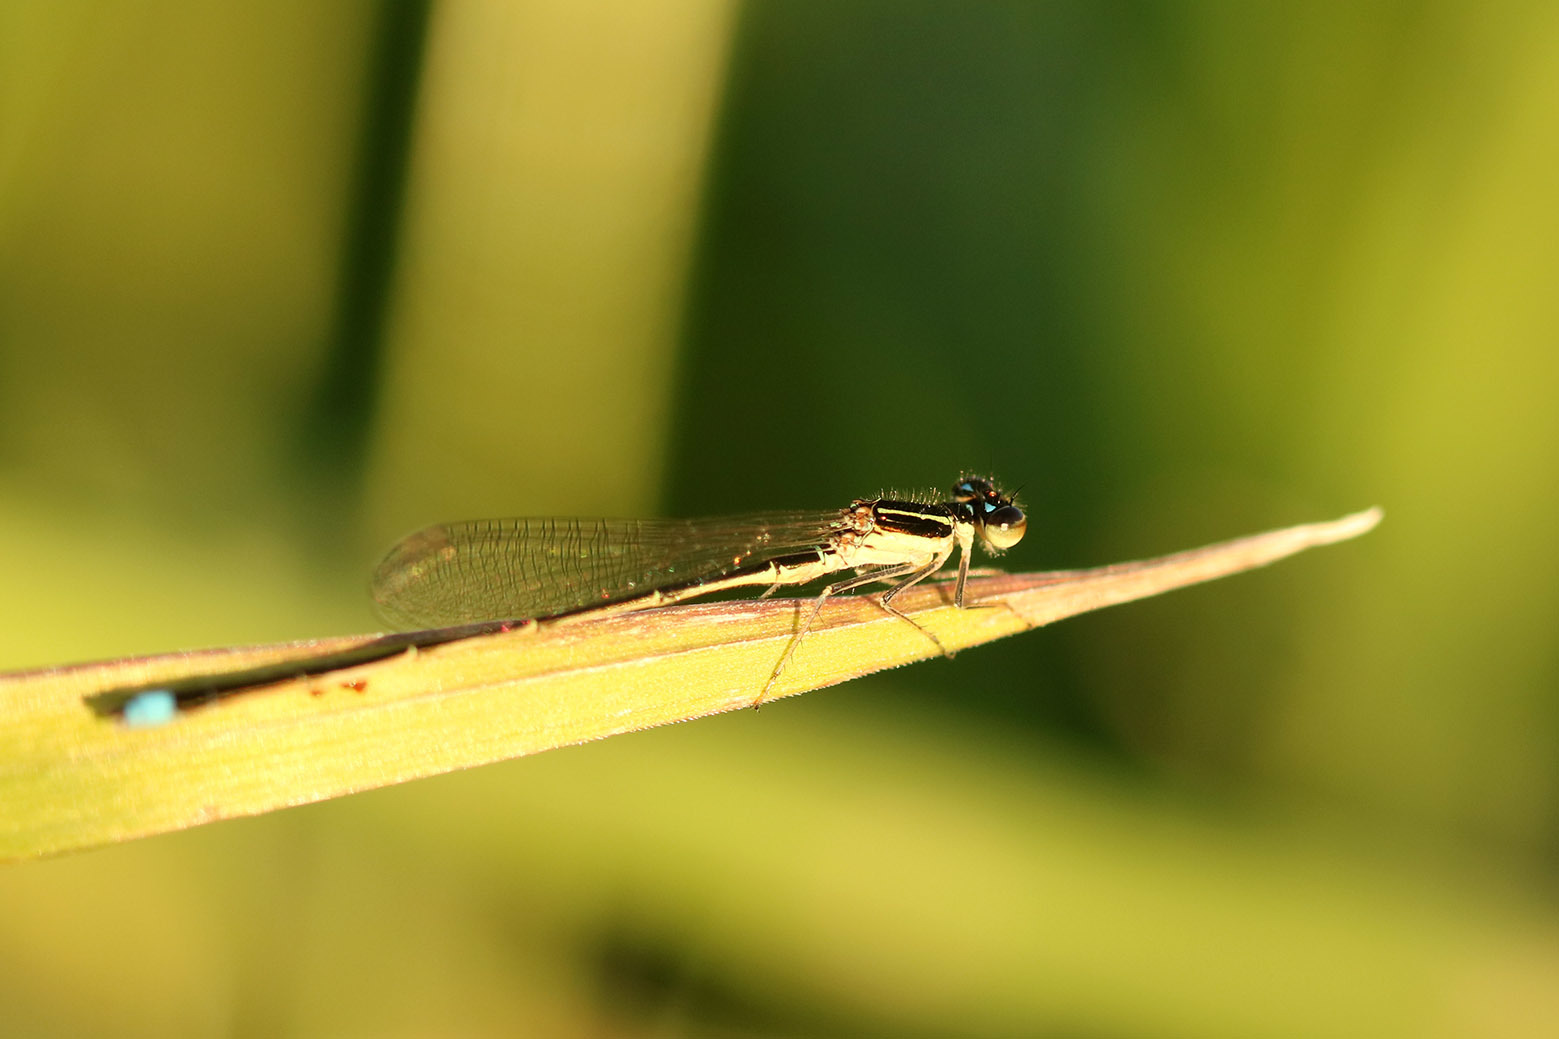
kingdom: Animalia
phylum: Arthropoda
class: Insecta
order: Odonata
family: Coenagrionidae
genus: Argentagrion
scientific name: Argentagrion ambiguum
